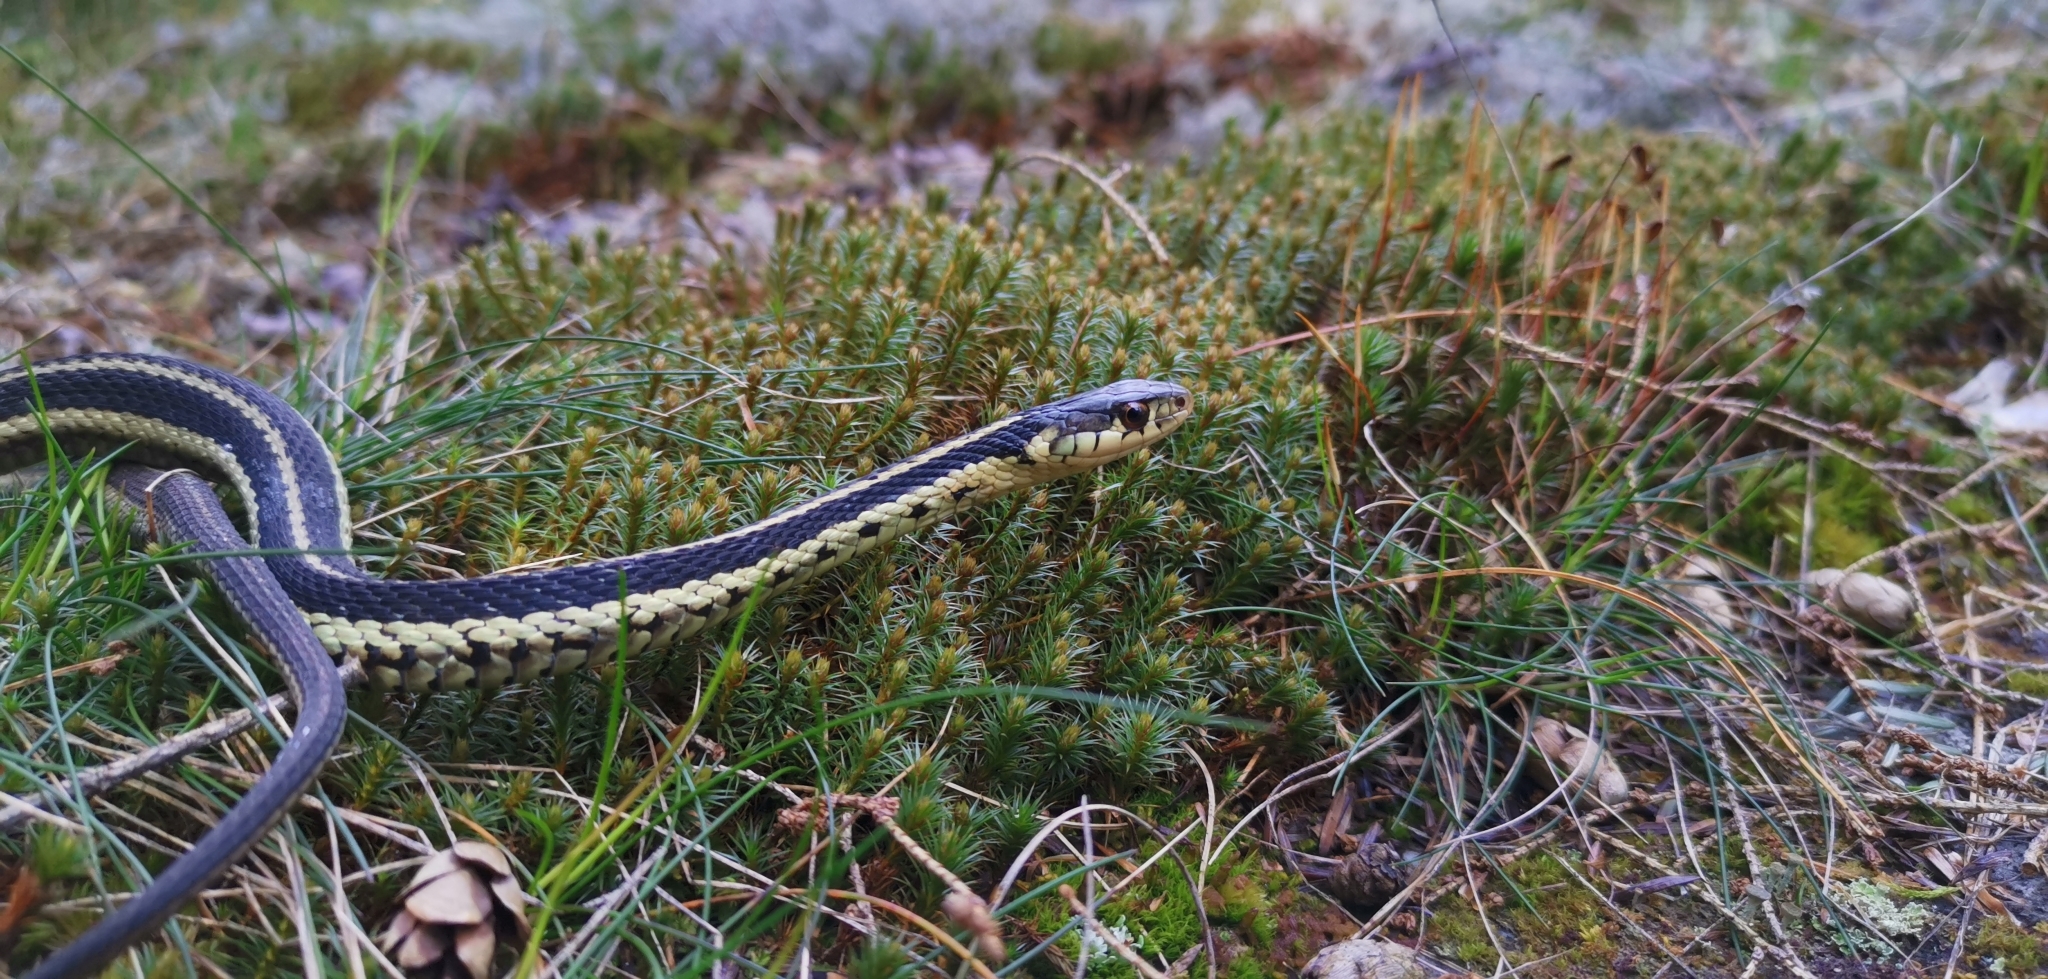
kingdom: Animalia
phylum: Chordata
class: Squamata
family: Colubridae
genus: Thamnophis
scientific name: Thamnophis sirtalis
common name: Common garter snake
